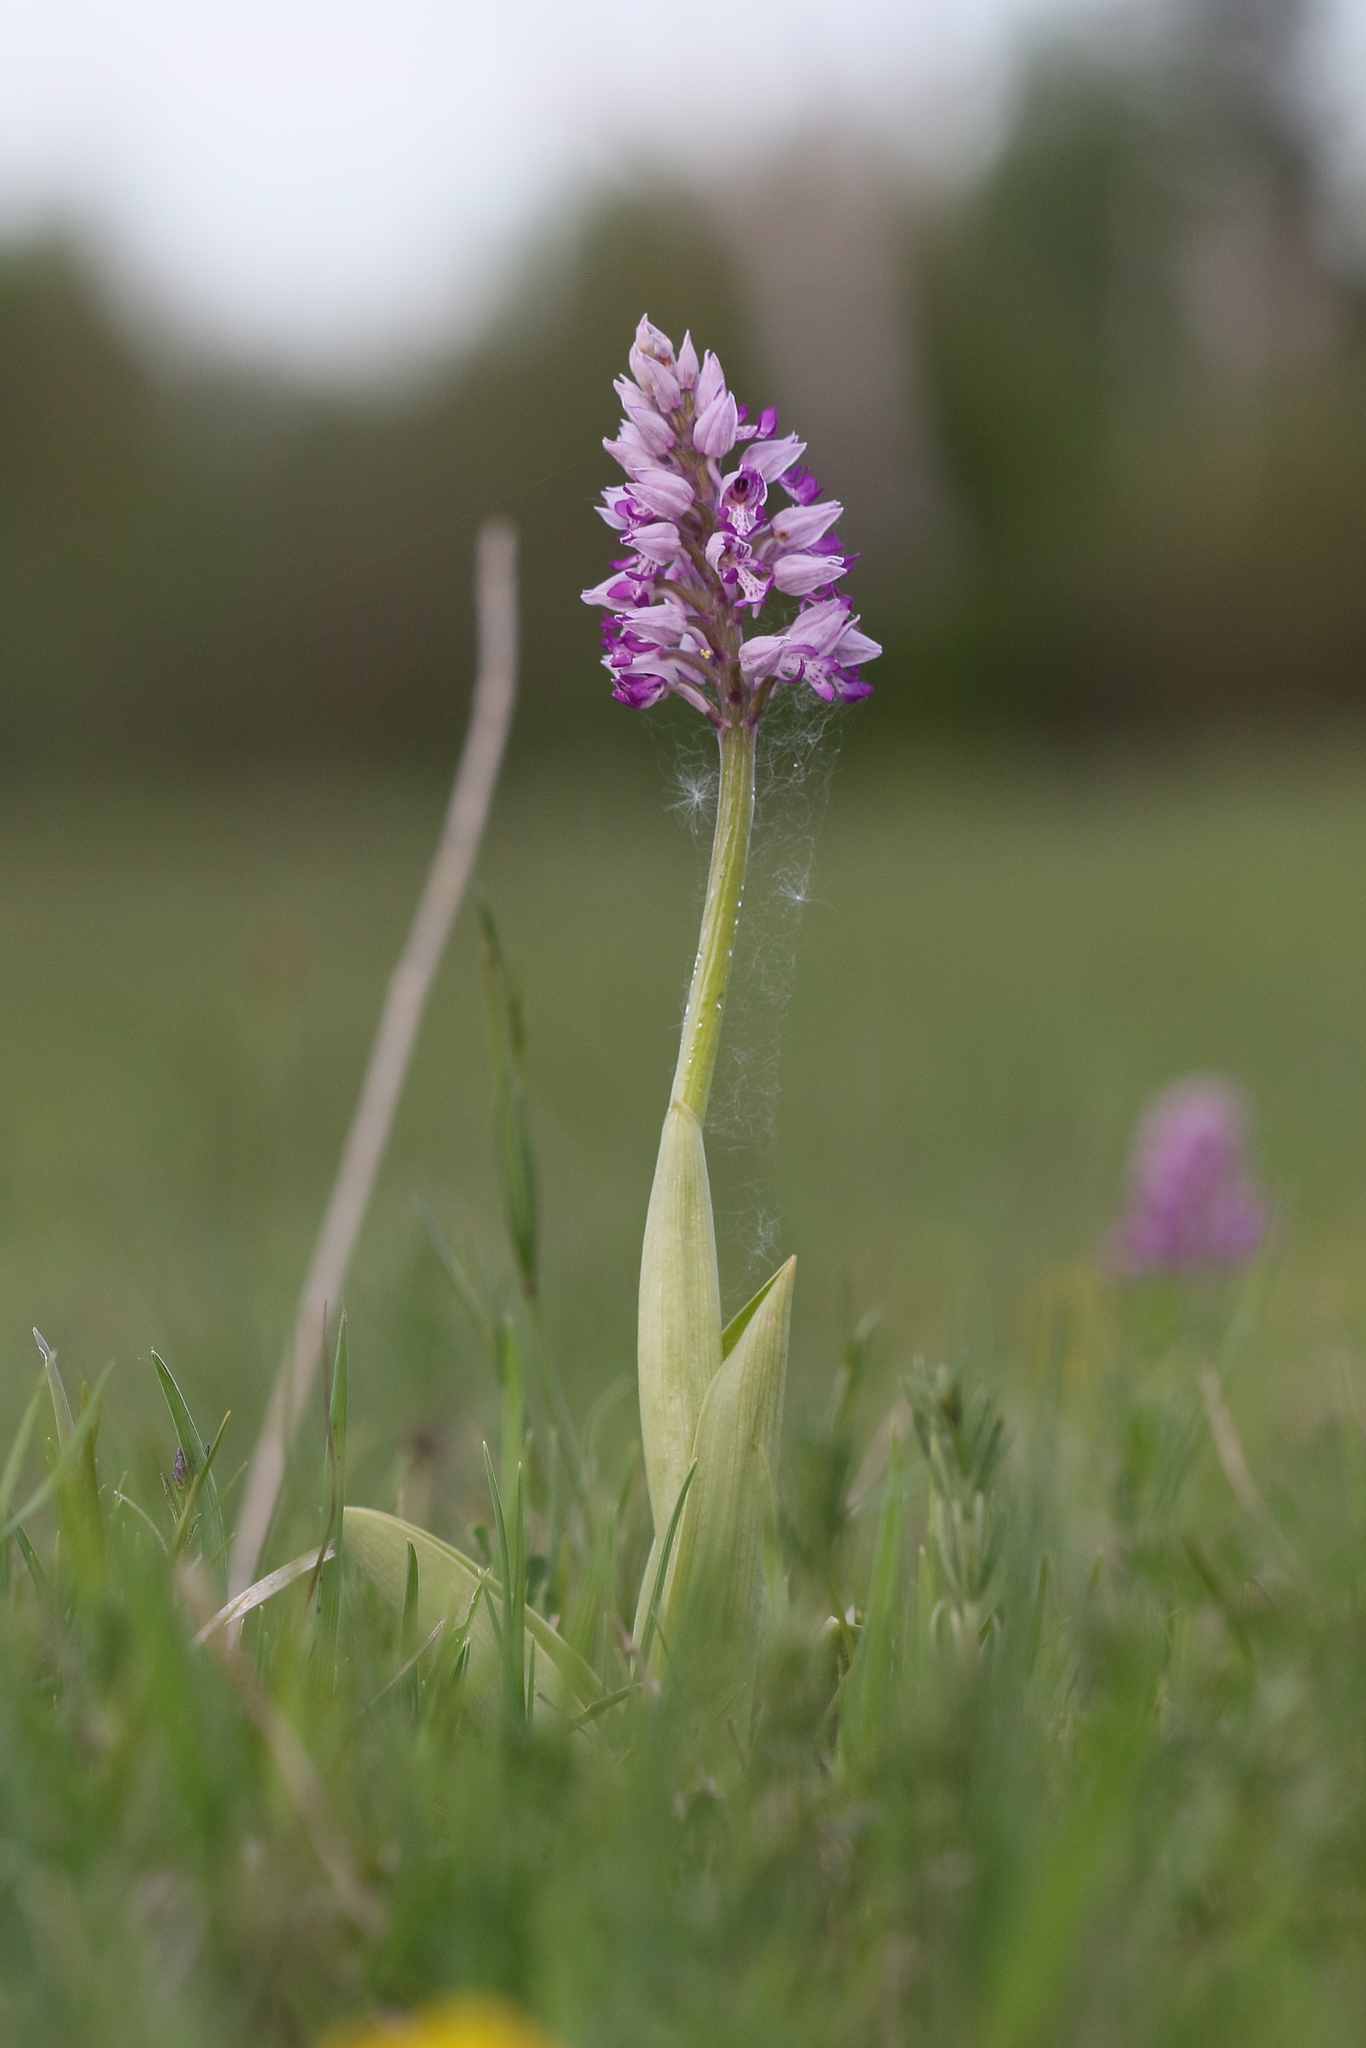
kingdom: Plantae
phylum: Tracheophyta
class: Liliopsida
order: Asparagales
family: Orchidaceae
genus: Orchis
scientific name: Orchis militaris
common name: Military orchid
